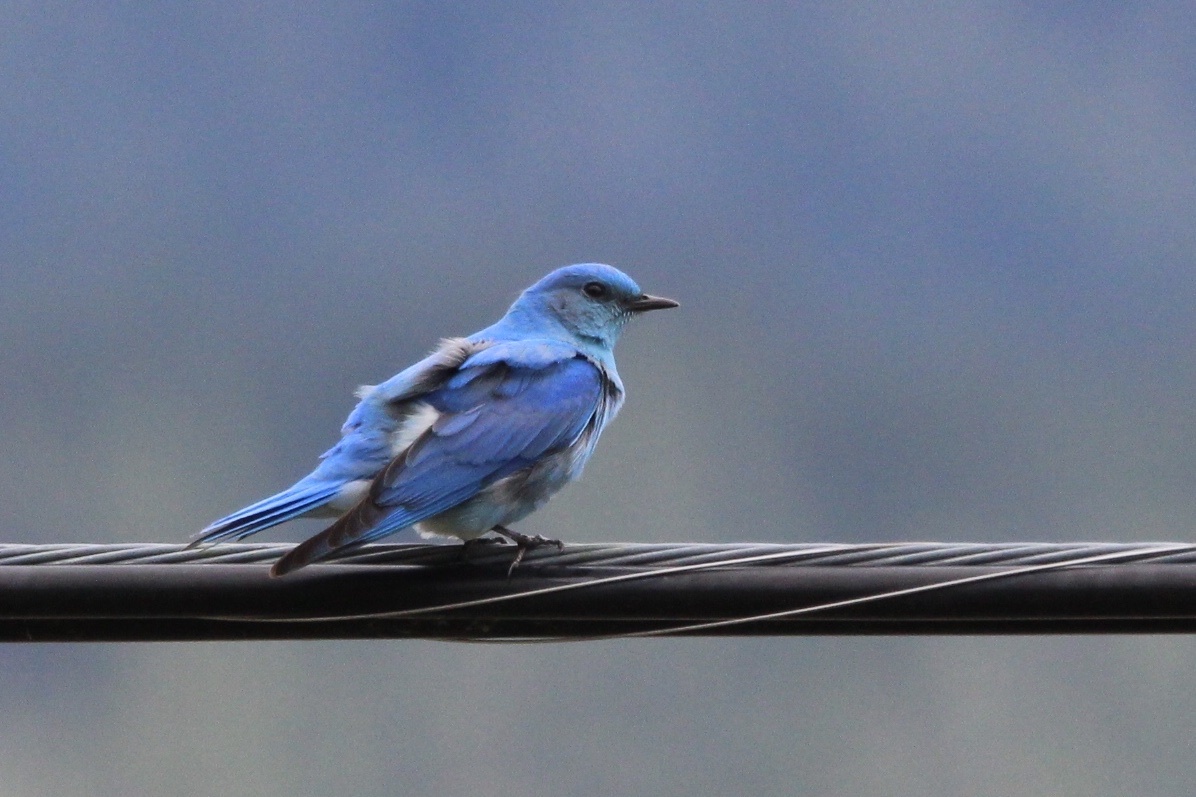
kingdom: Animalia
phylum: Chordata
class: Aves
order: Passeriformes
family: Turdidae
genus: Sialia
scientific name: Sialia currucoides
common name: Mountain bluebird
